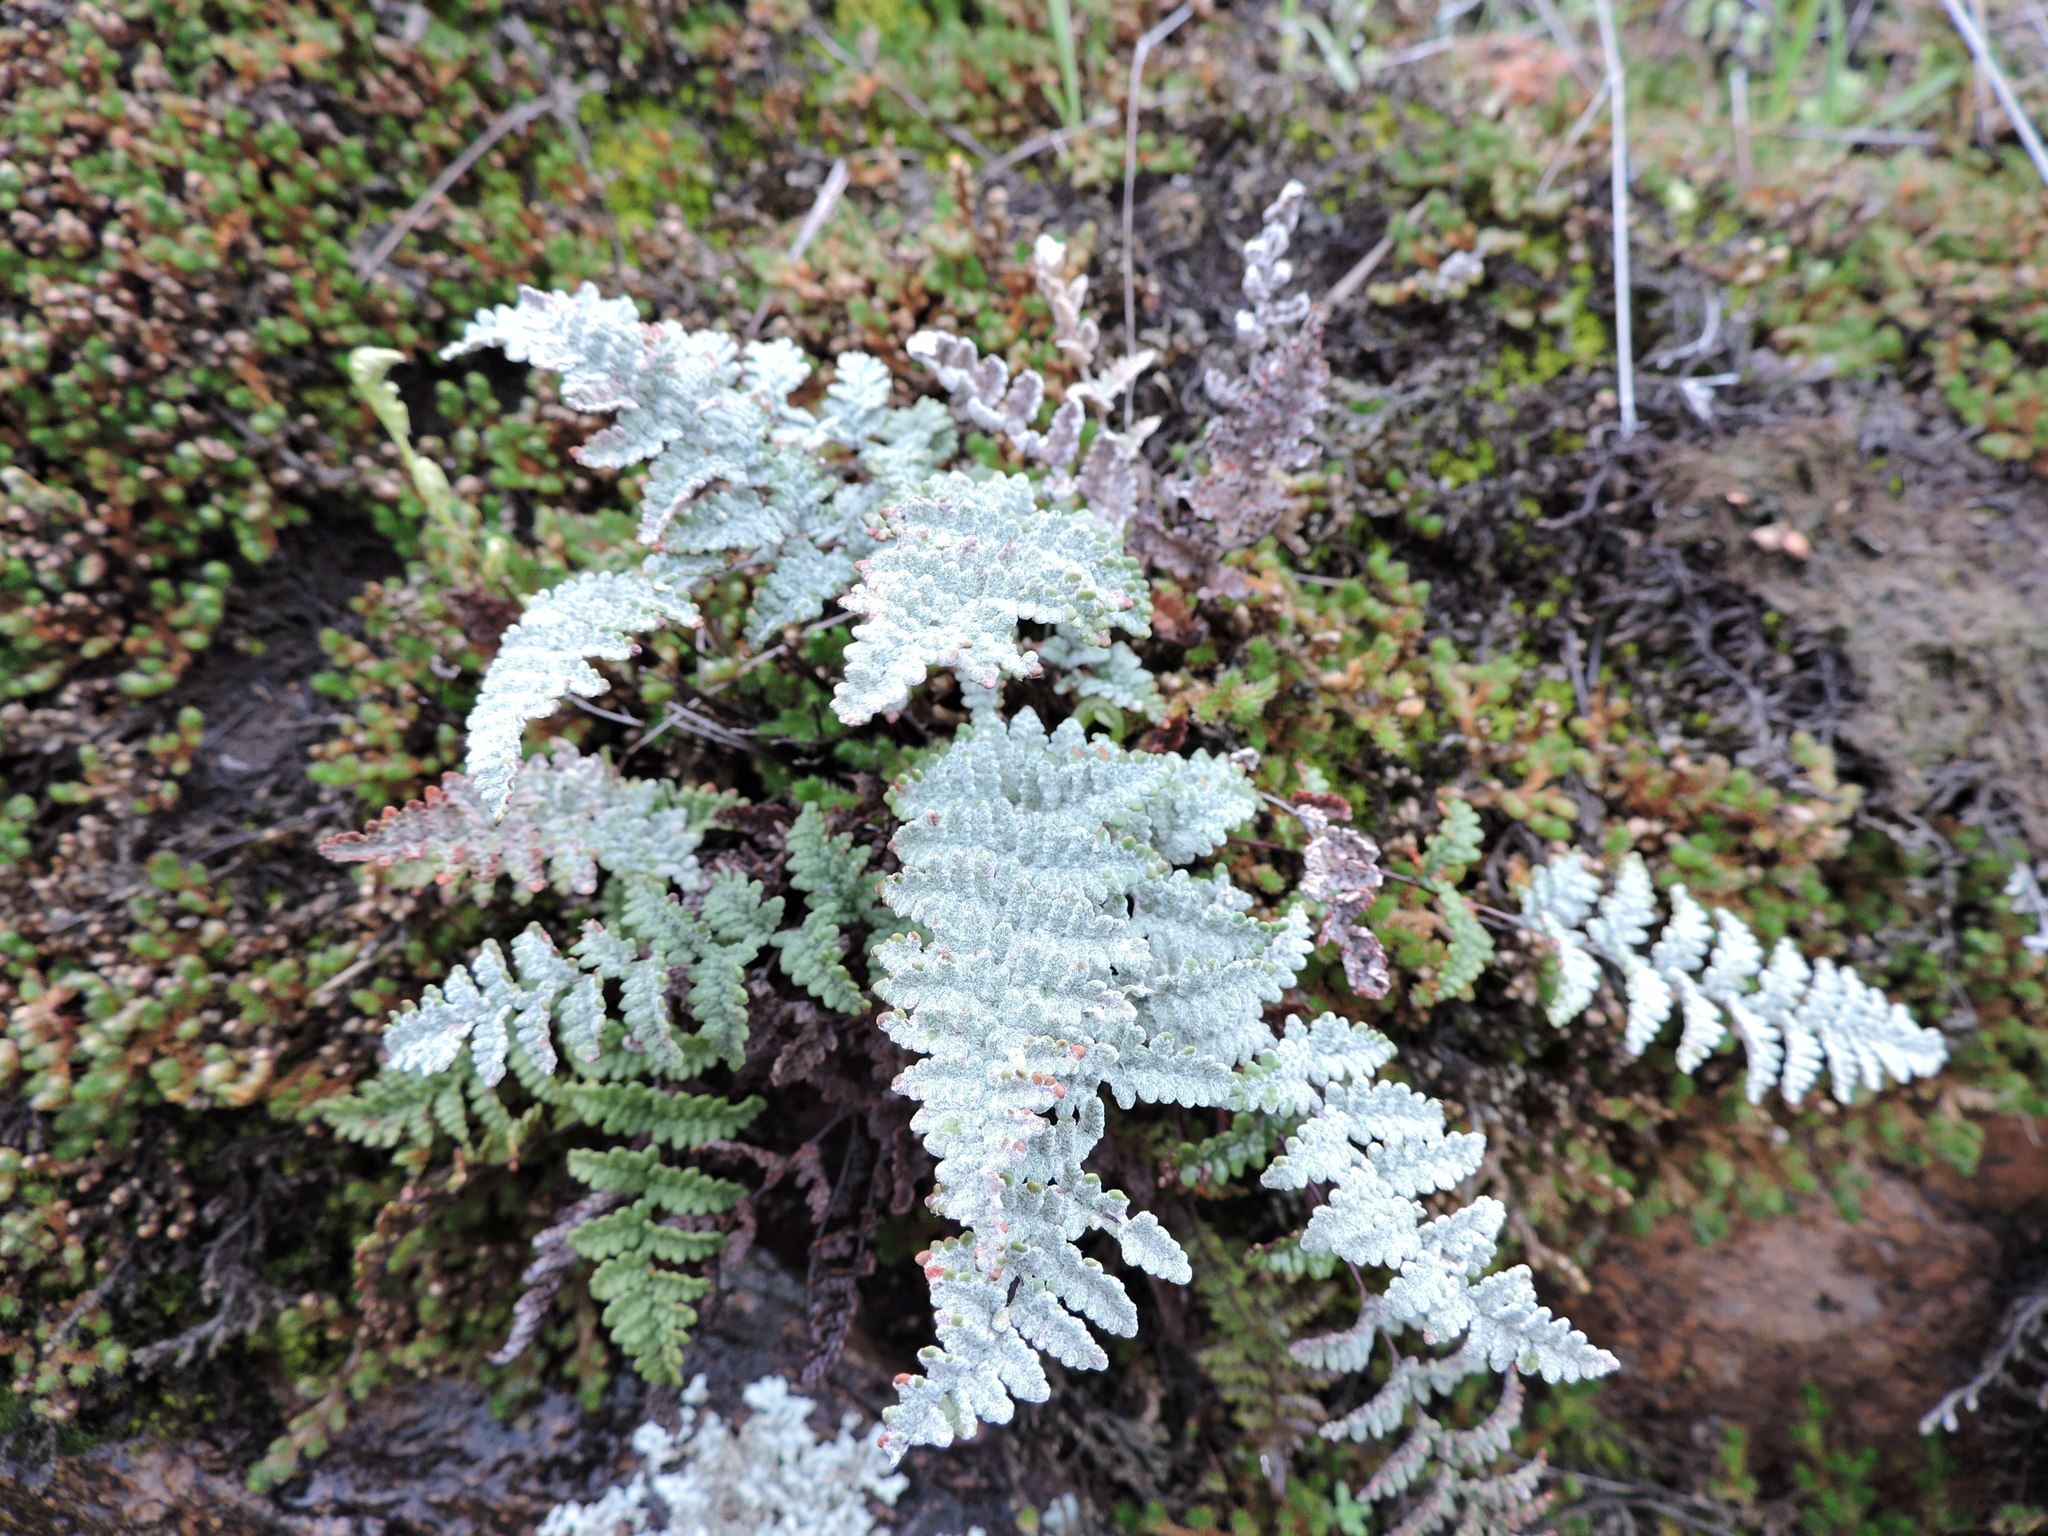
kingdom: Plantae
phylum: Tracheophyta
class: Polypodiopsida
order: Polypodiales
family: Pteridaceae
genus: Myriopteris
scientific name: Myriopteris rufa
